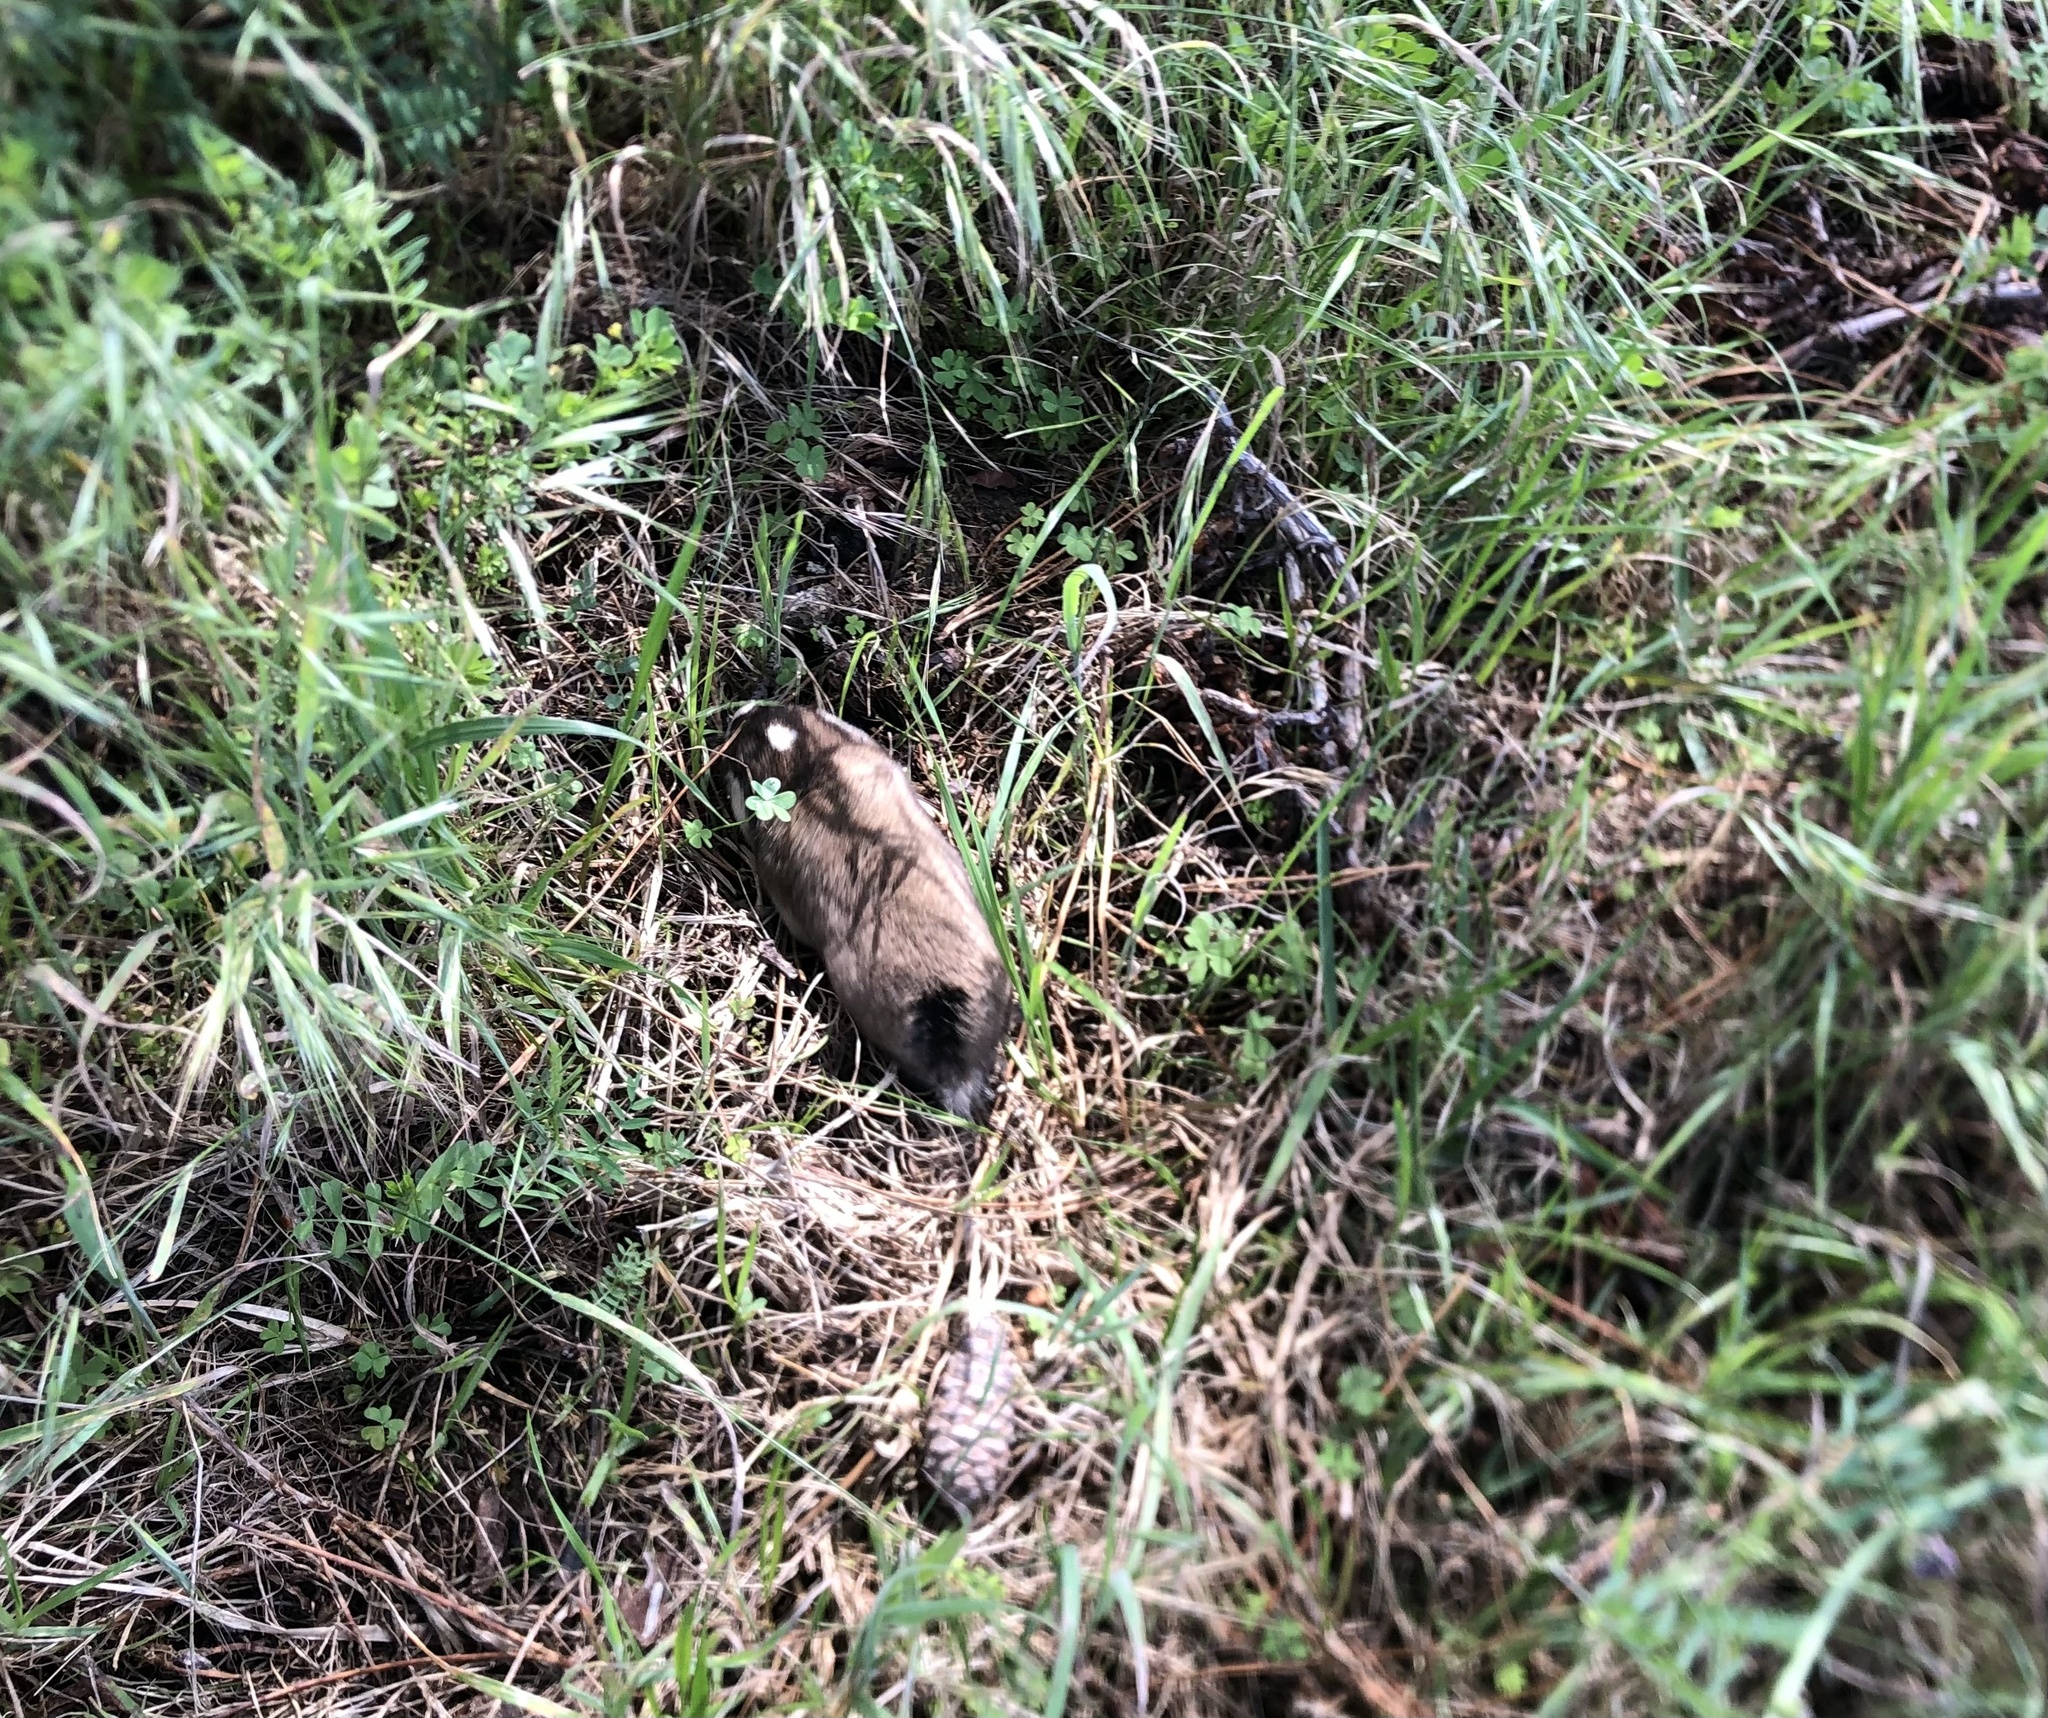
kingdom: Animalia
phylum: Chordata
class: Mammalia
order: Rodentia
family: Bathyergidae
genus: Georychus
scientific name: Georychus capensis
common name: Cape mole-rat
